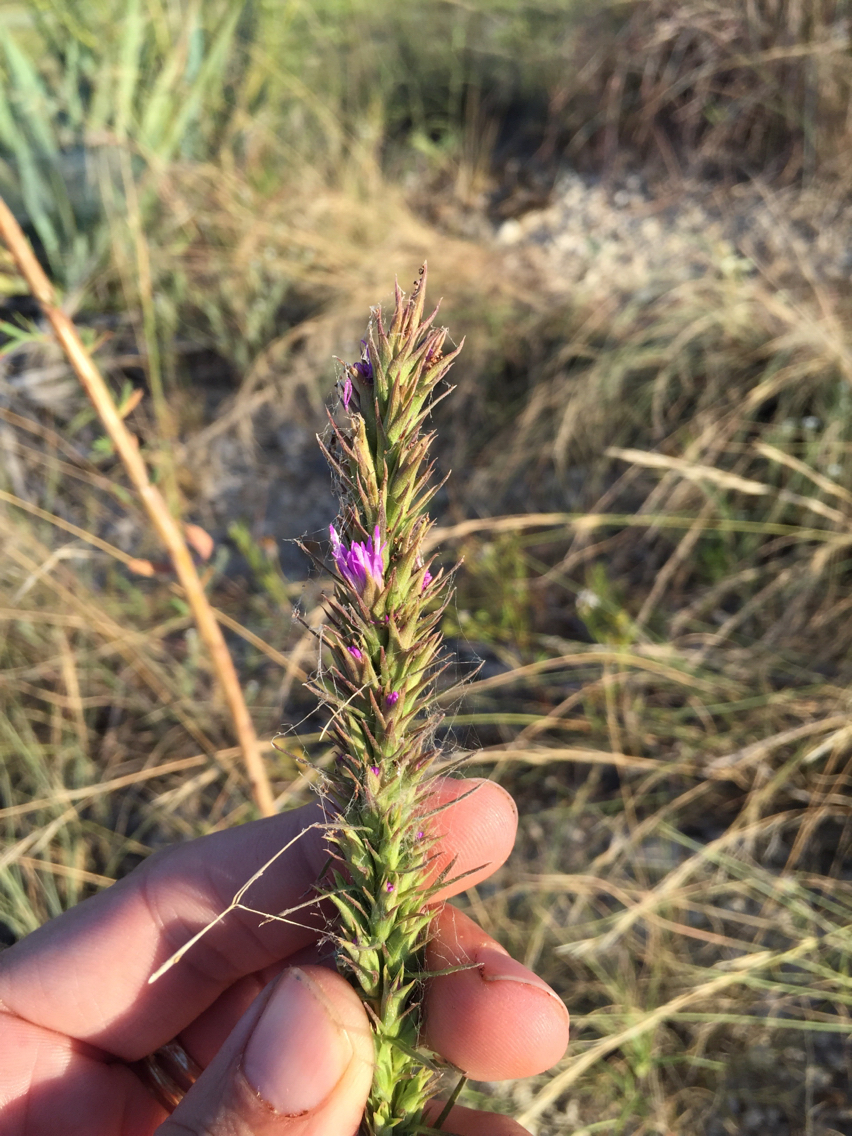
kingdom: Plantae
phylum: Tracheophyta
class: Magnoliopsida
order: Asterales
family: Asteraceae
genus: Liatris
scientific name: Liatris aestivalis
